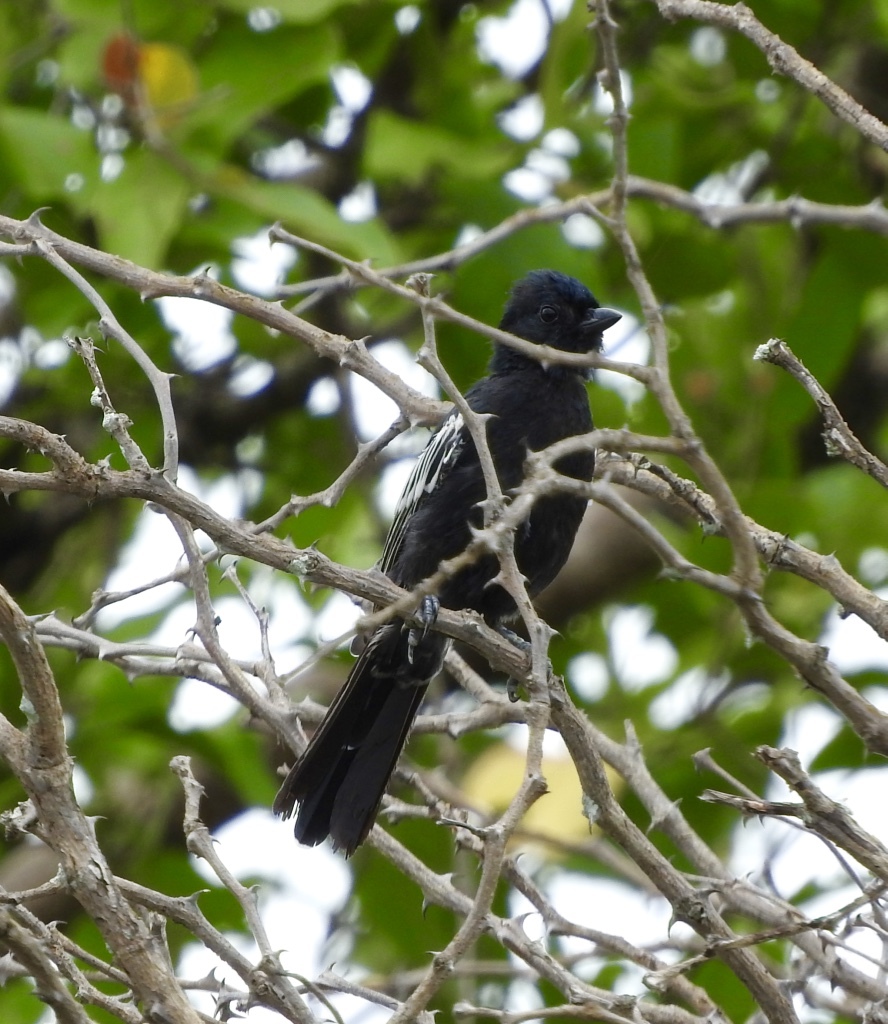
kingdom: Animalia
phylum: Chordata
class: Aves
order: Passeriformes
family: Paridae
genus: Parus
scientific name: Parus niger
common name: Southern black tit
